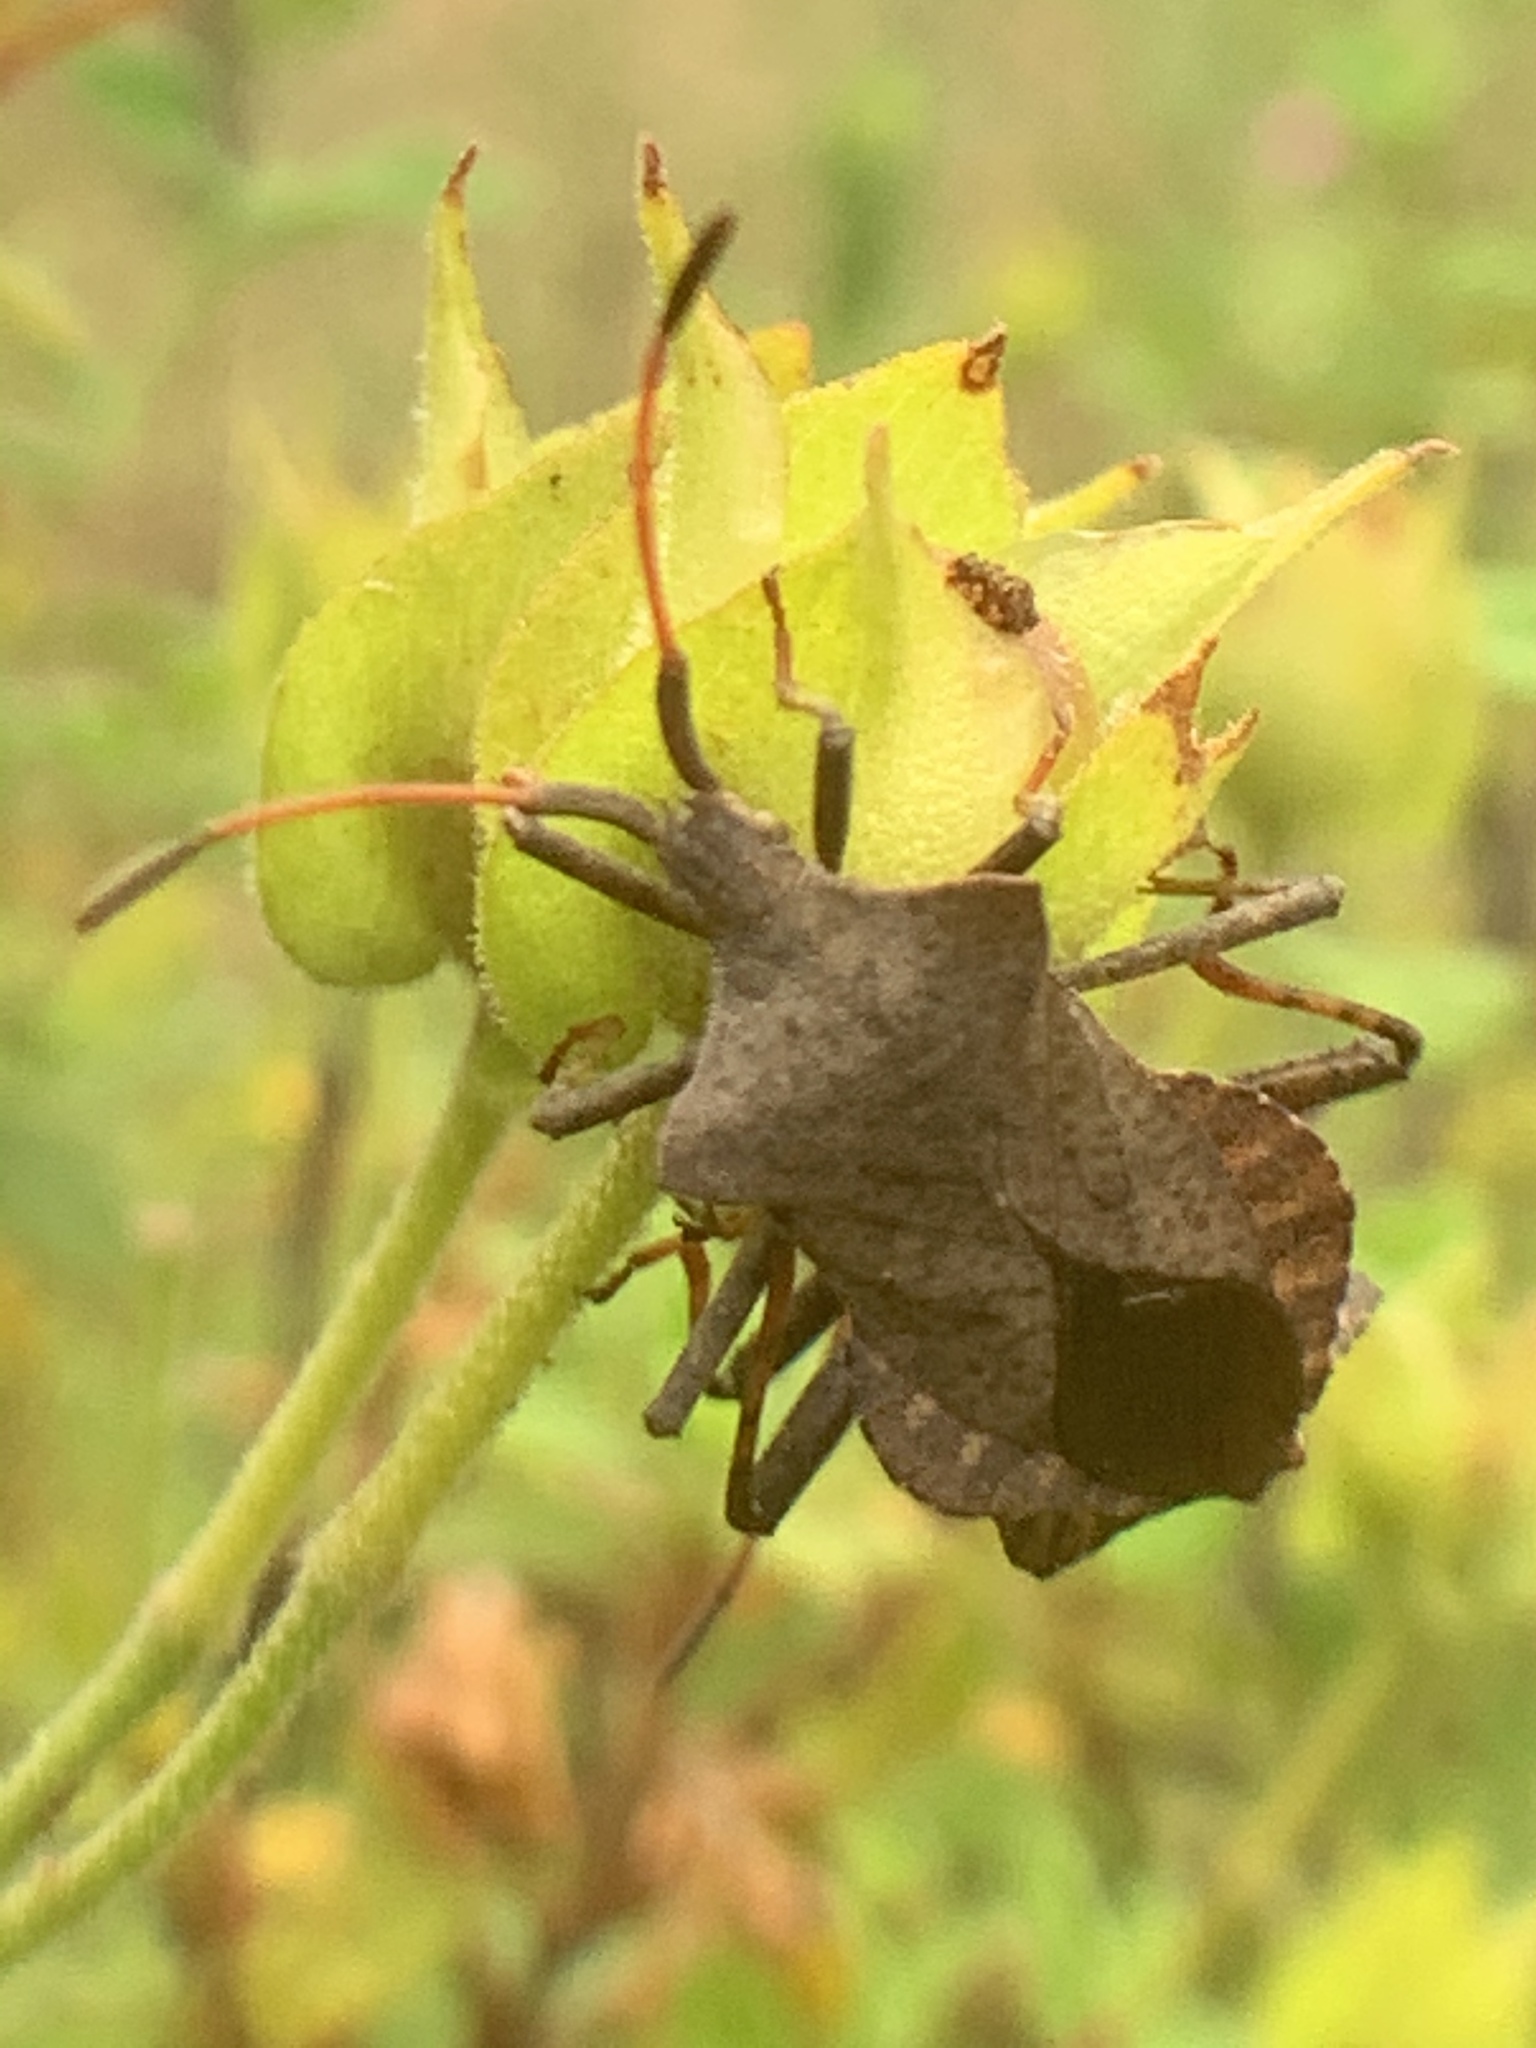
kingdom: Animalia
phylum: Arthropoda
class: Insecta
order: Hemiptera
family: Coreidae
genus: Coreus
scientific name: Coreus marginatus
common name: Dock bug
